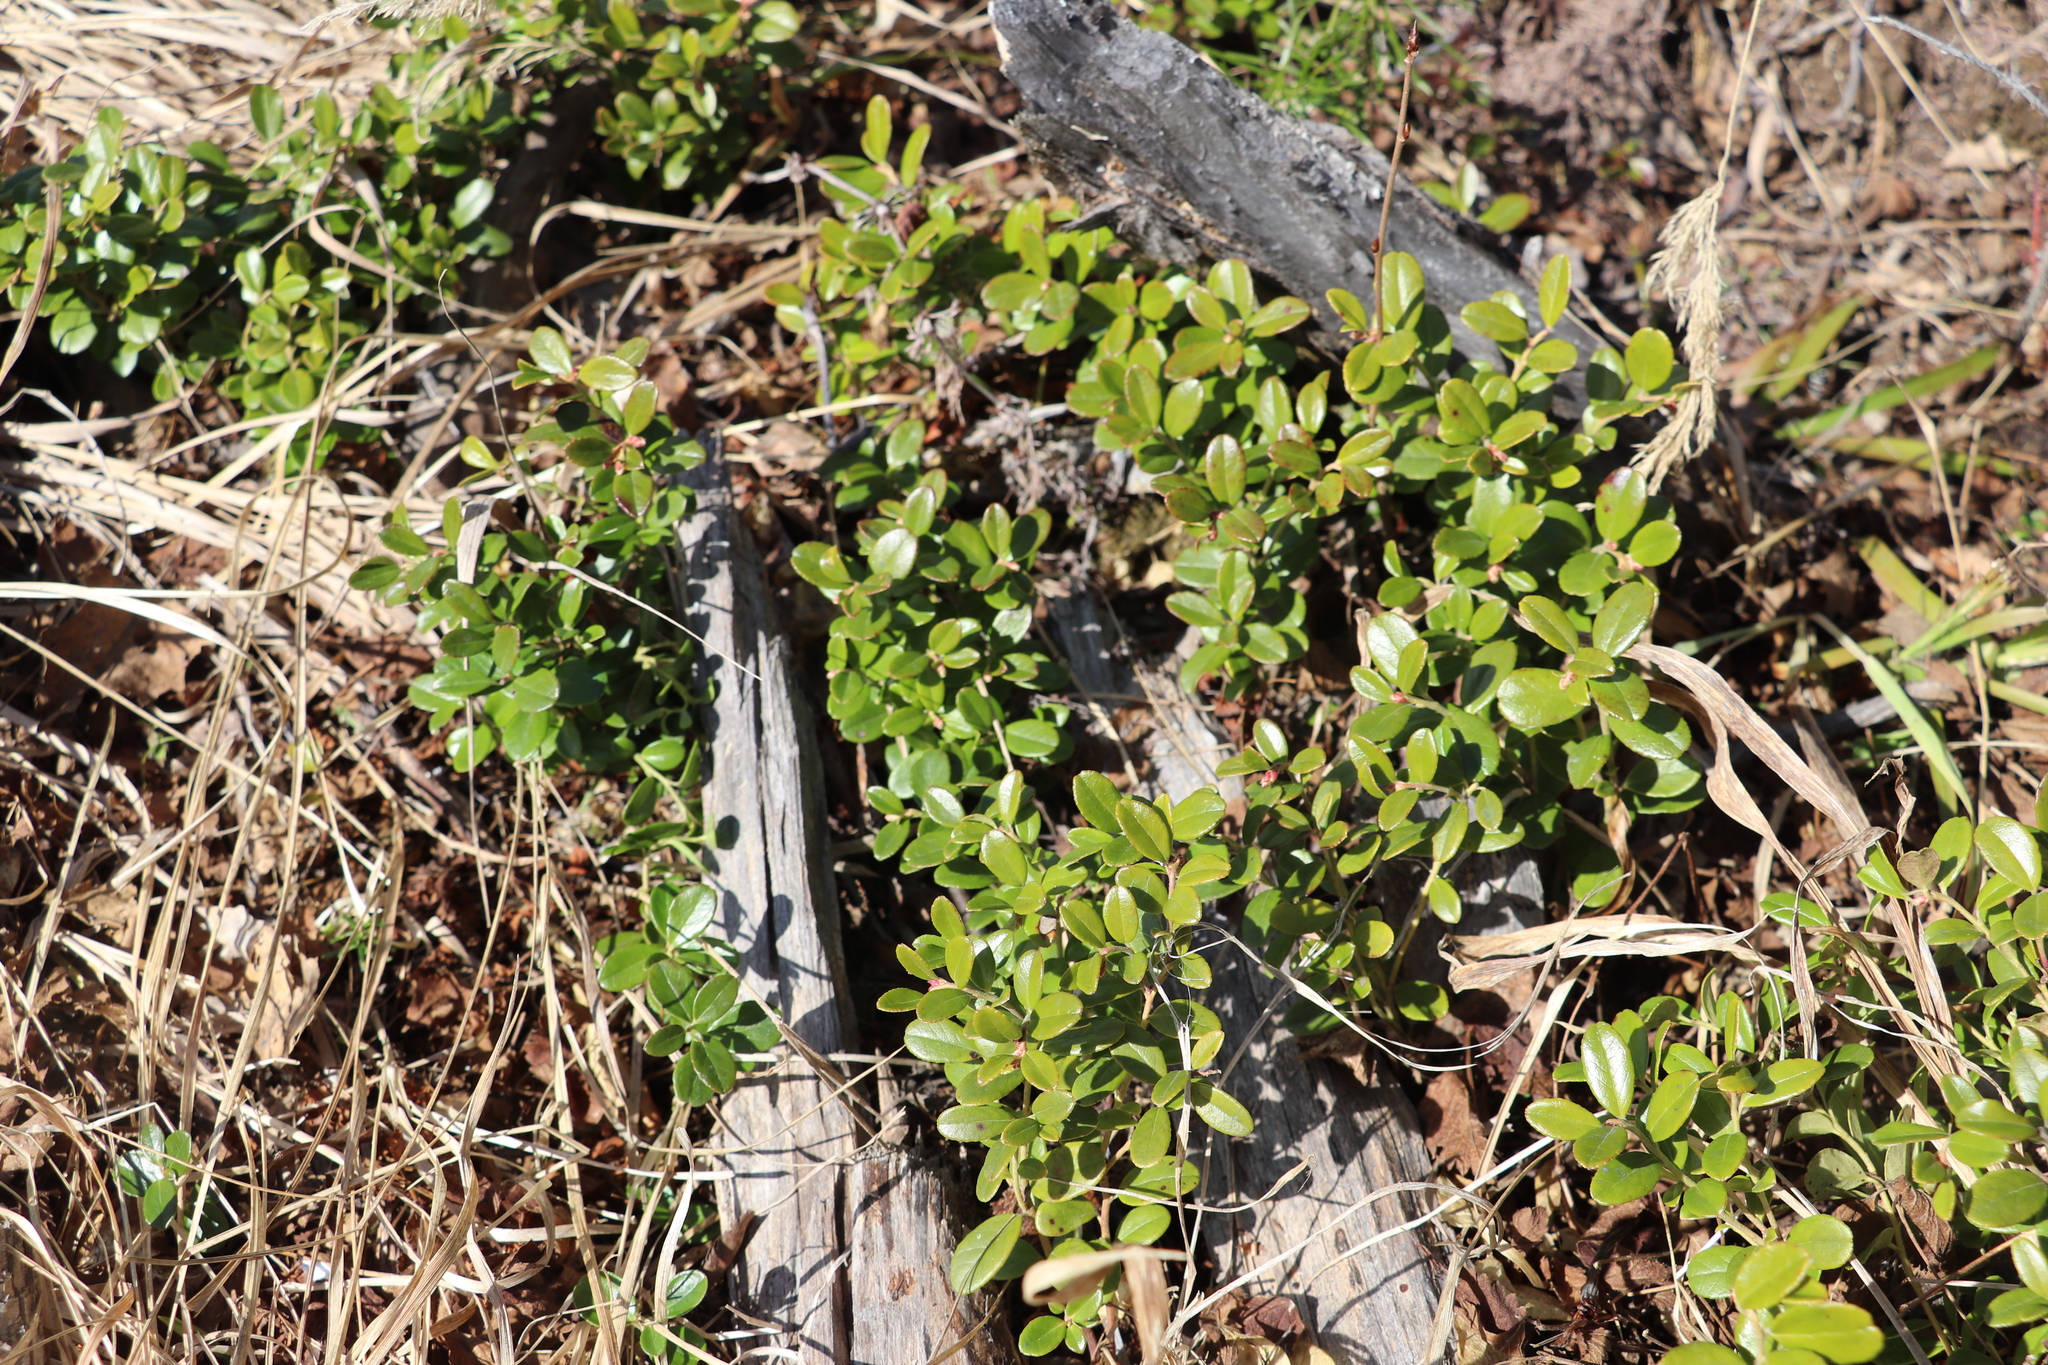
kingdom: Plantae
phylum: Tracheophyta
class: Magnoliopsida
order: Ericales
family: Ericaceae
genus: Vaccinium
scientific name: Vaccinium vitis-idaea
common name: Cowberry
